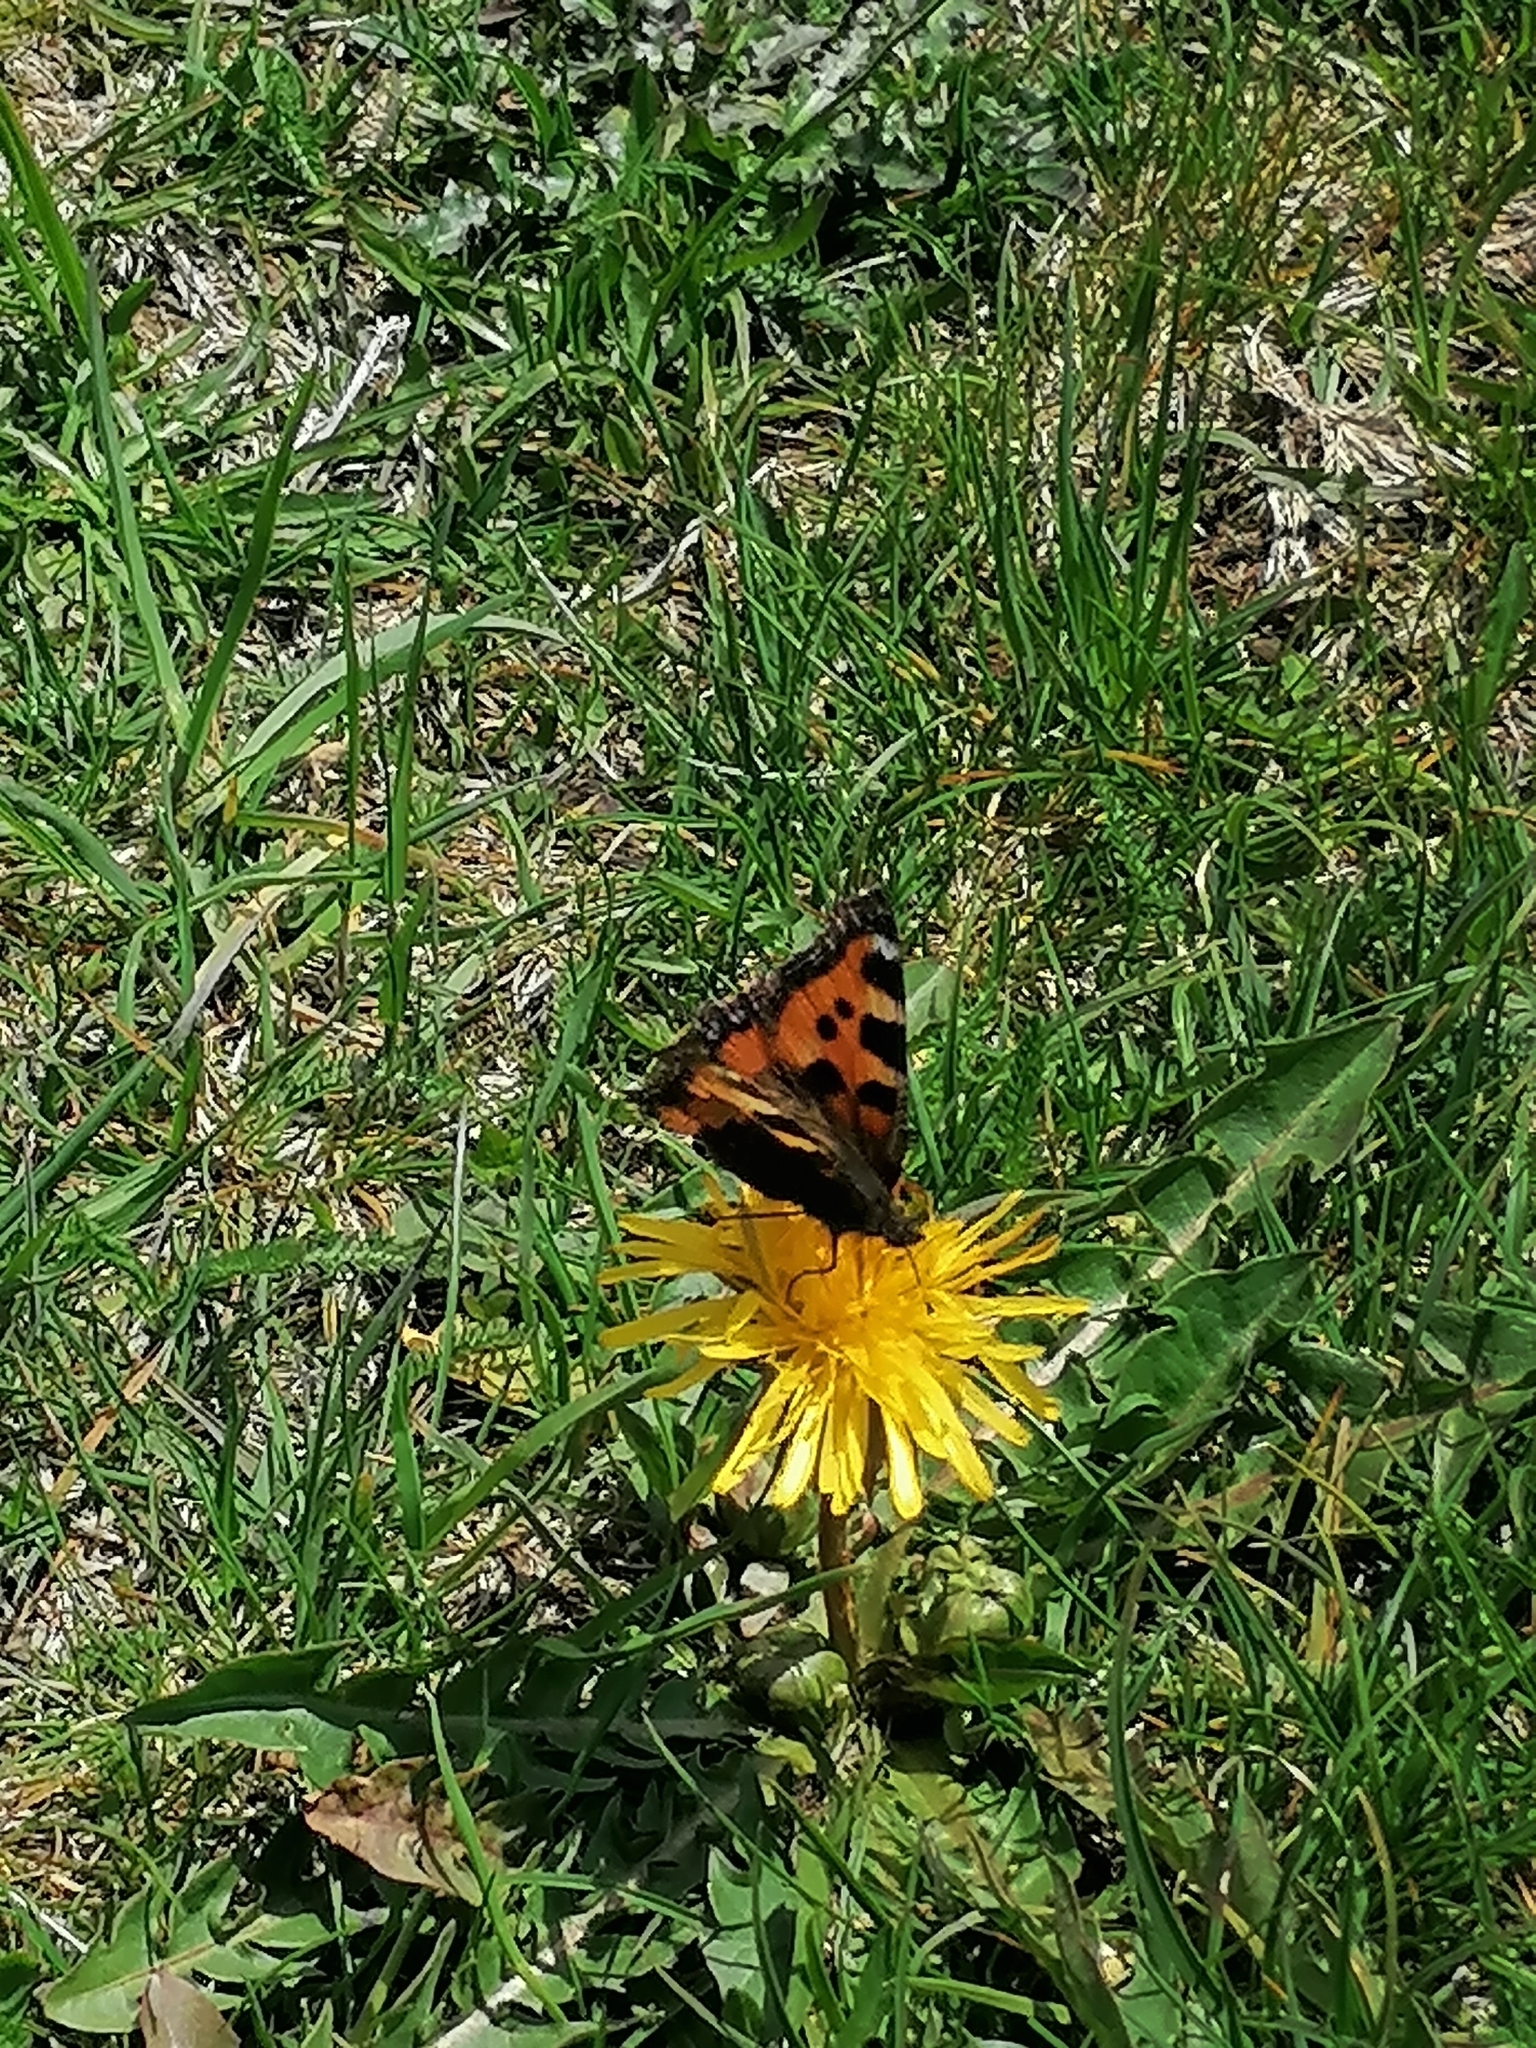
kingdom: Animalia
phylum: Arthropoda
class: Insecta
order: Lepidoptera
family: Nymphalidae
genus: Aglais
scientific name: Aglais urticae
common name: Small tortoiseshell
